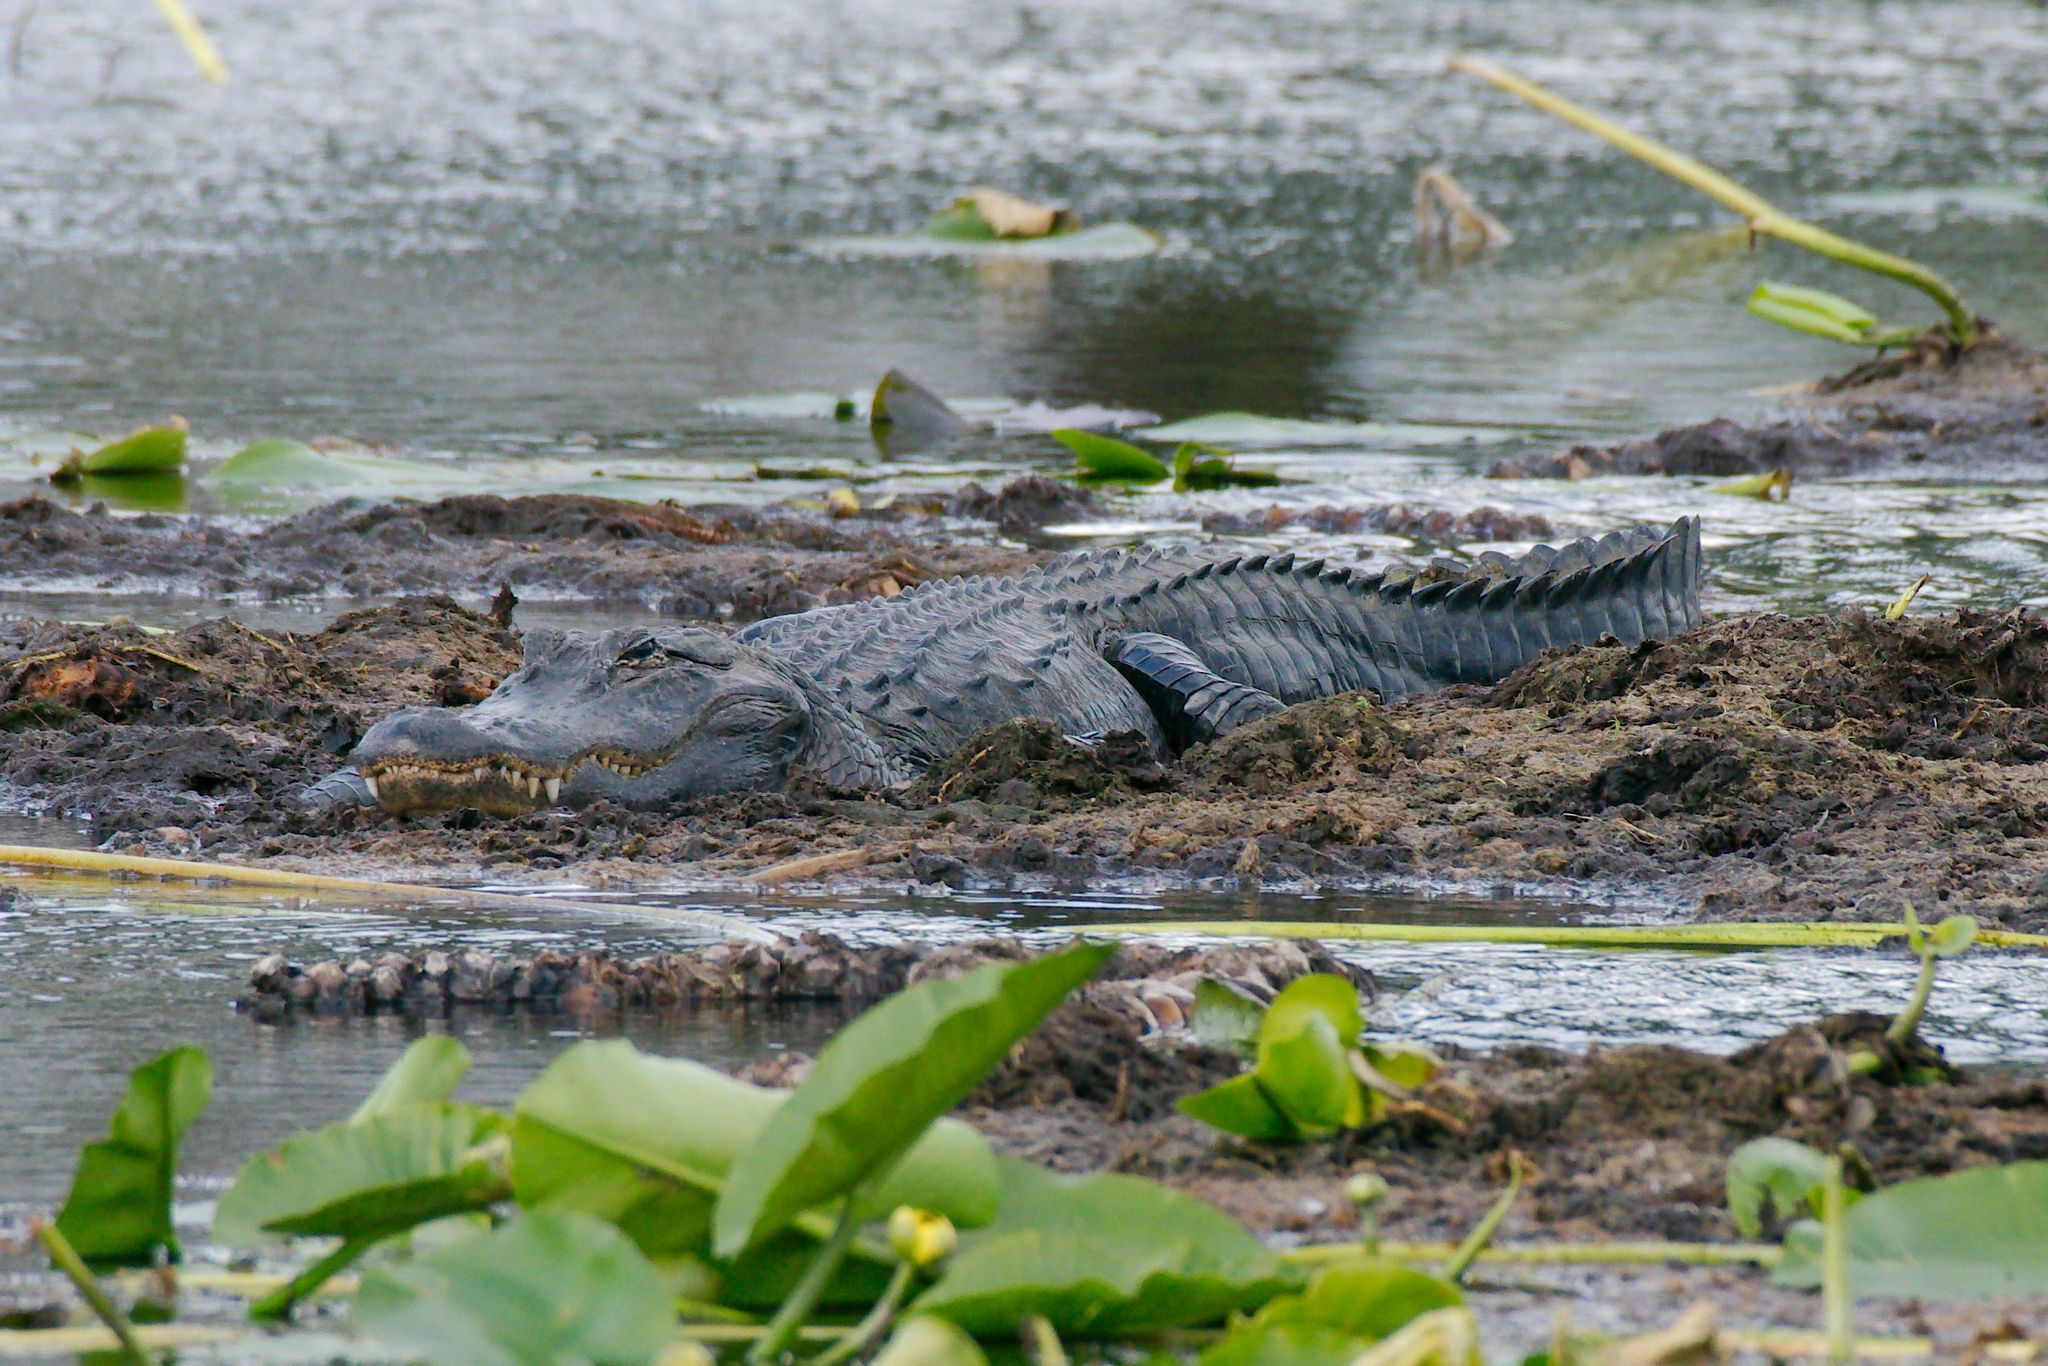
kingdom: Animalia
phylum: Chordata
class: Crocodylia
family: Alligatoridae
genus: Alligator
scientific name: Alligator mississippiensis
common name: American alligator
